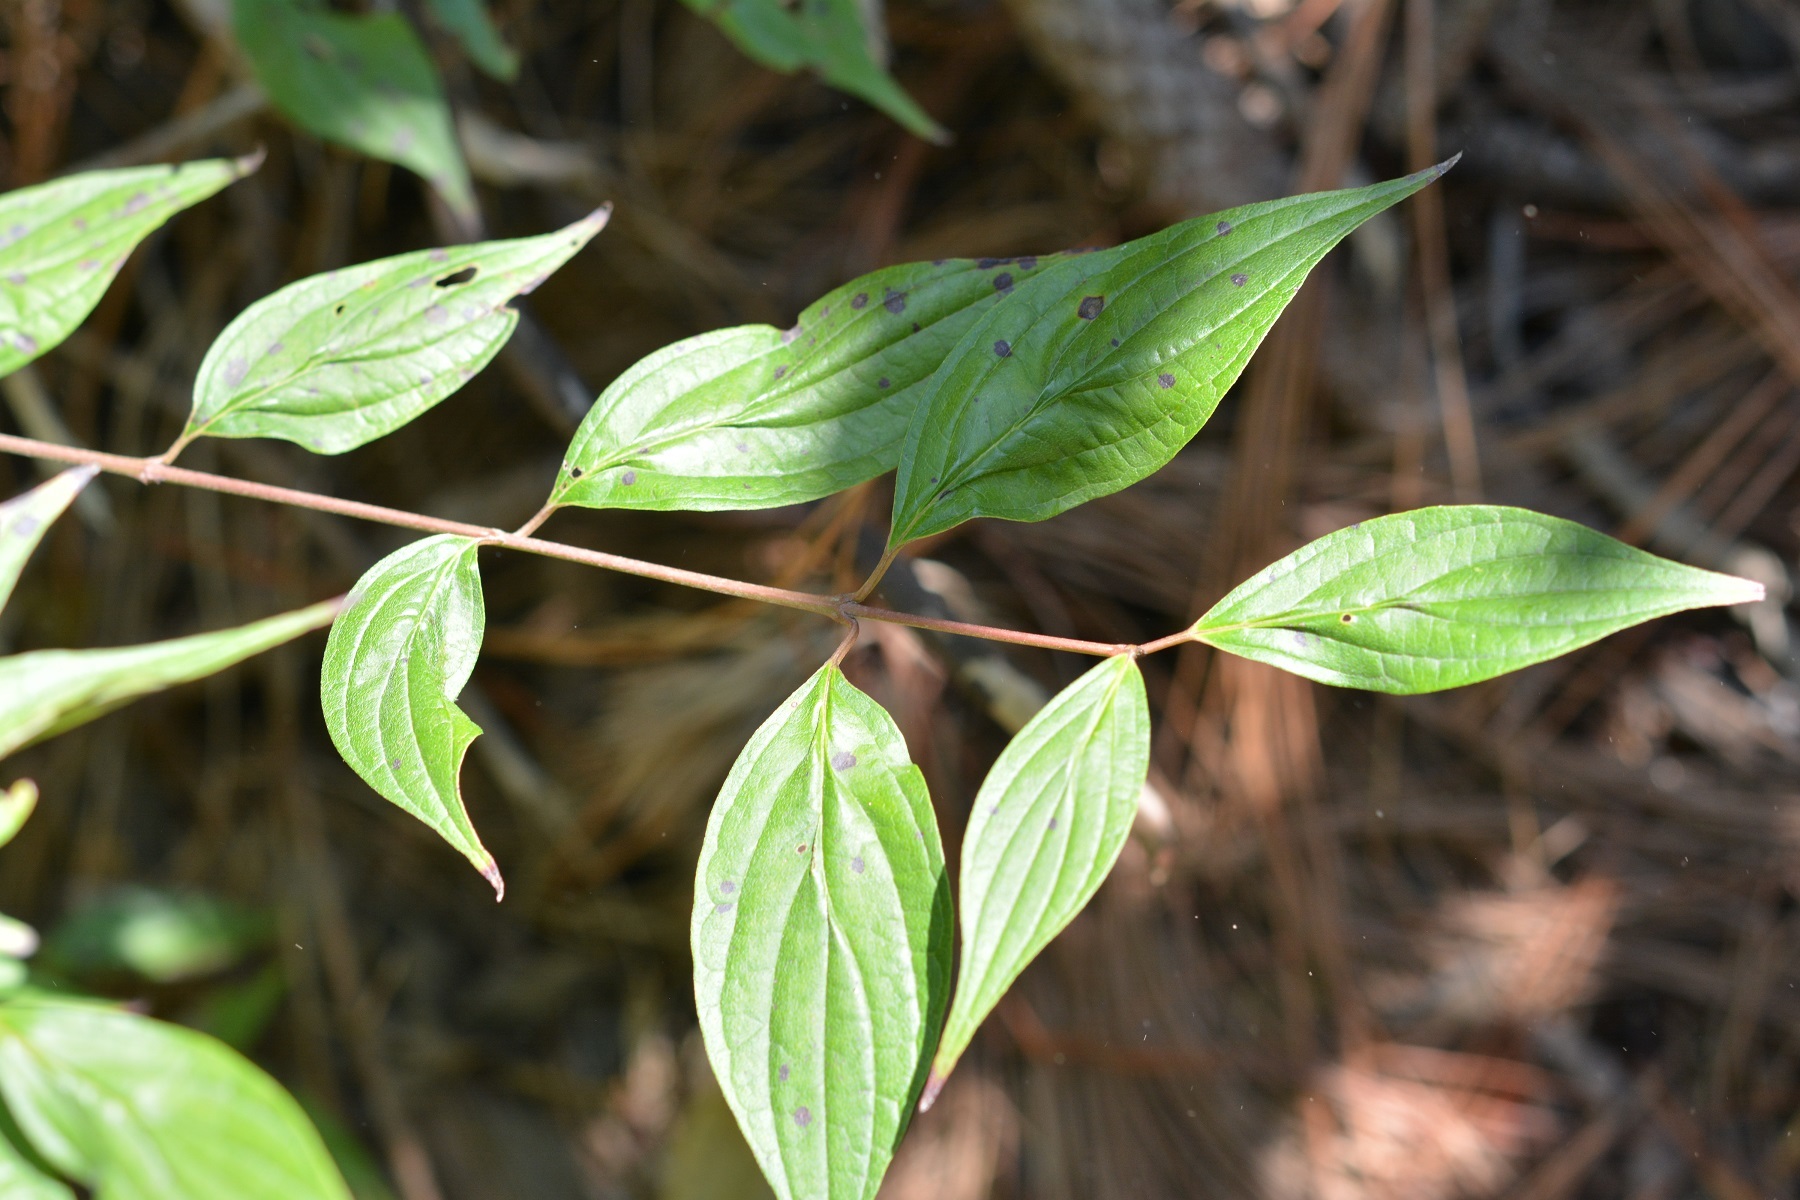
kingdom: Plantae
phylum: Tracheophyta
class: Magnoliopsida
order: Cornales
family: Cornaceae
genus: Cornus
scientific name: Cornus excelsa
